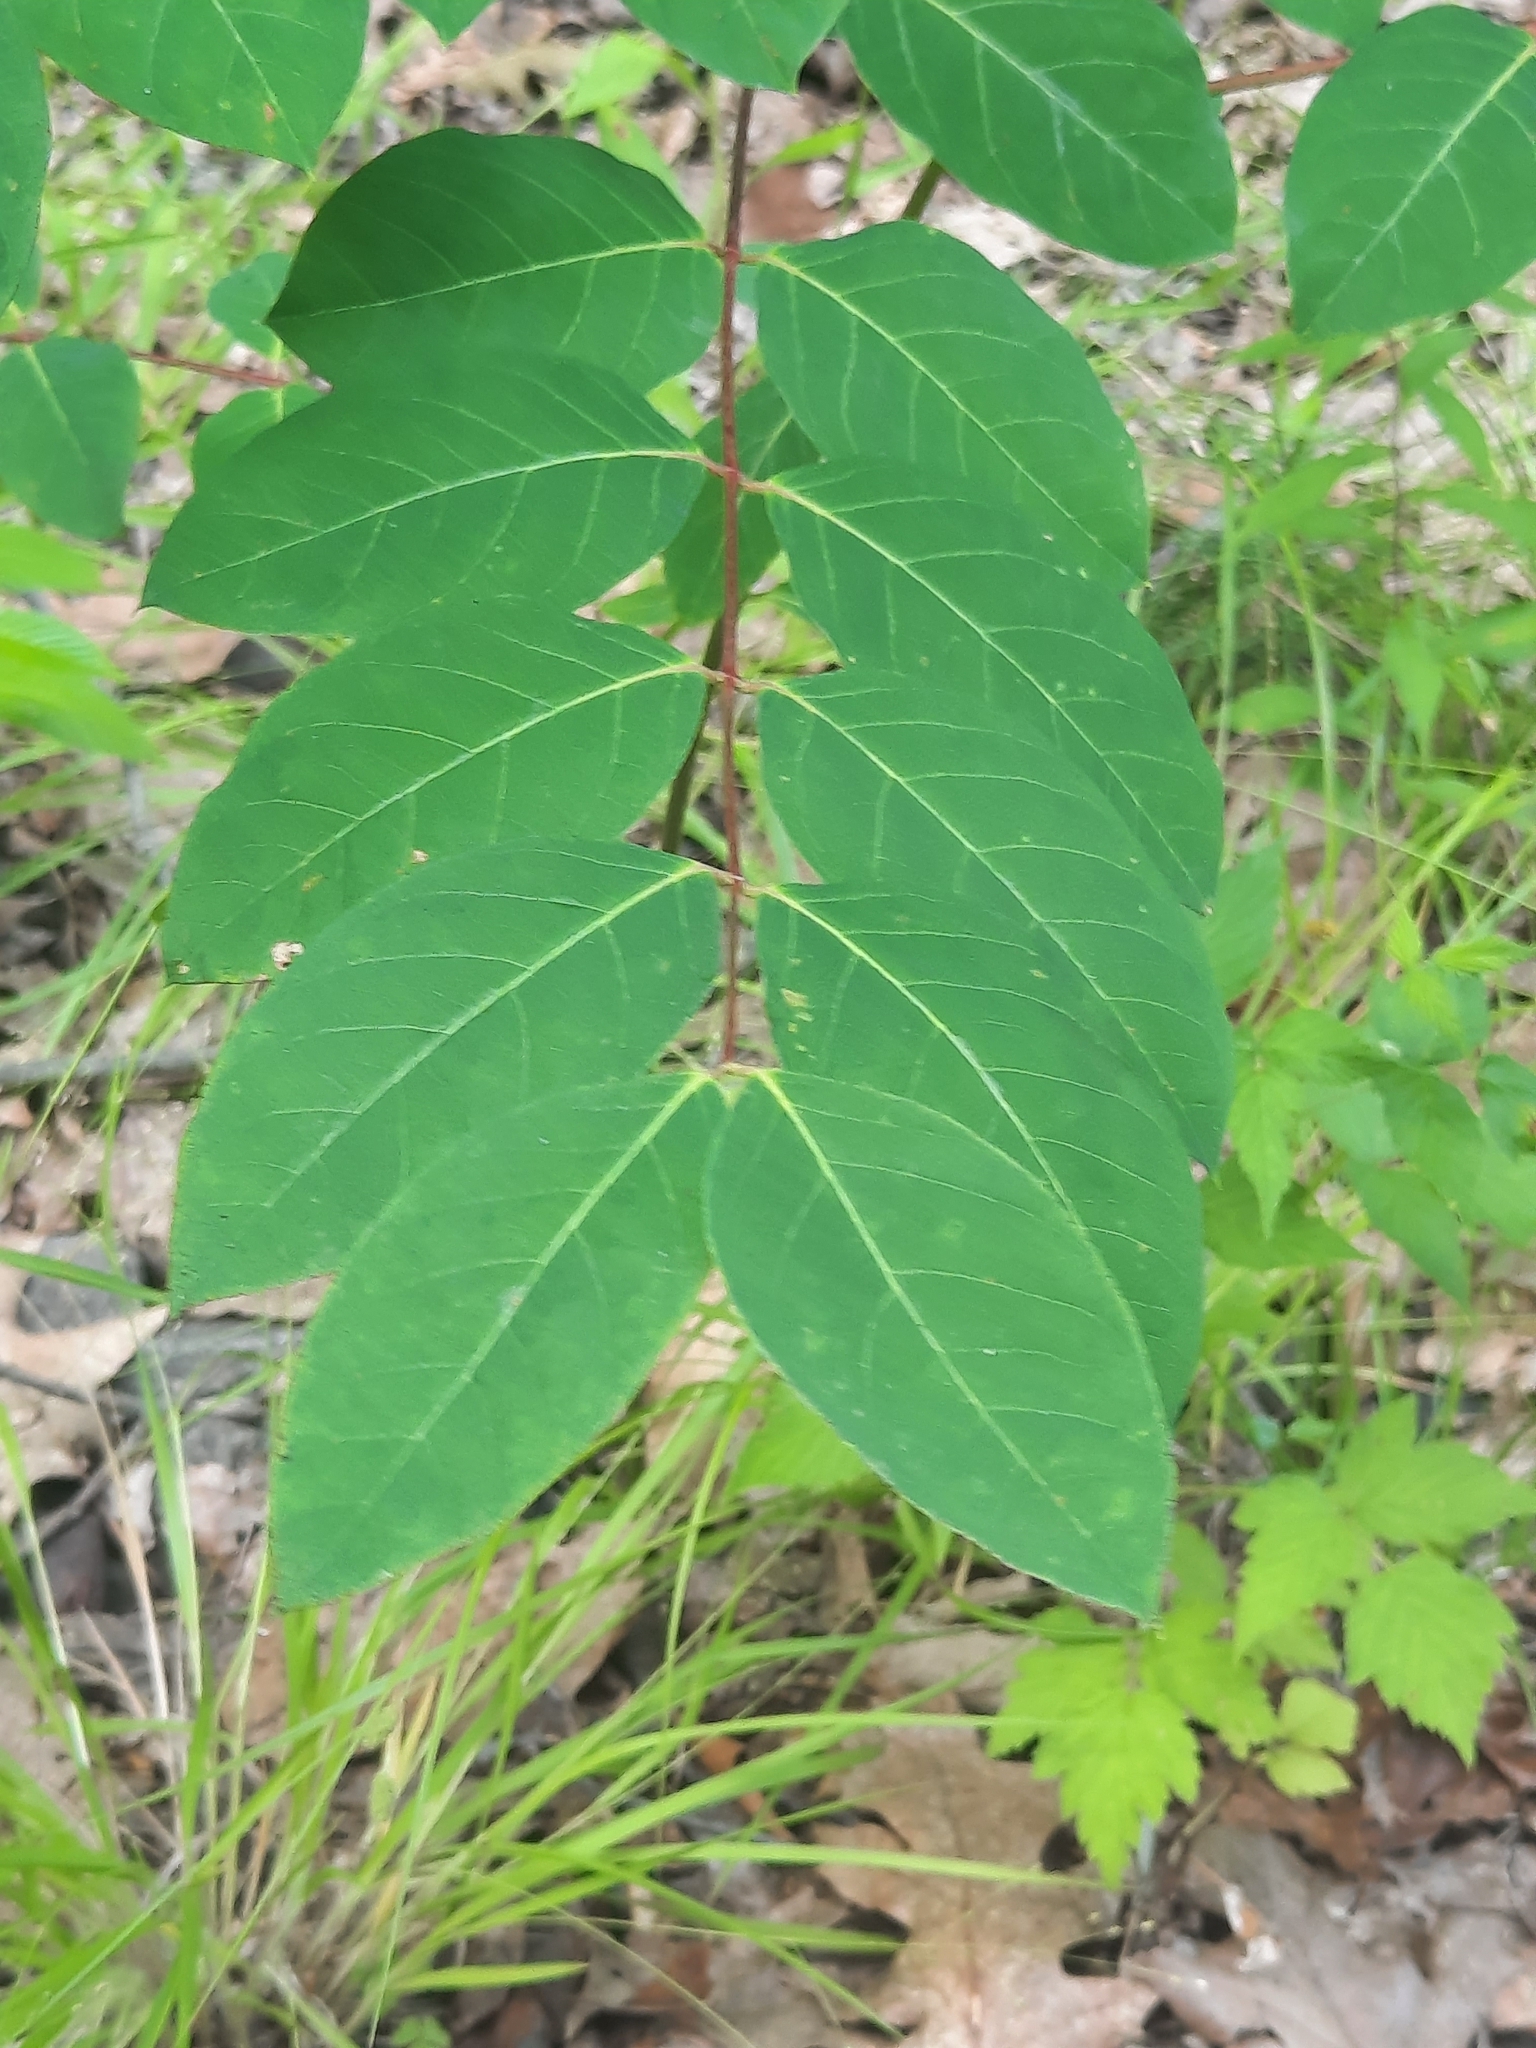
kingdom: Plantae
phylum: Tracheophyta
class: Magnoliopsida
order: Gentianales
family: Apocynaceae
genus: Apocynum
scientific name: Apocynum androsaemifolium
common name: Spreading dogbane
